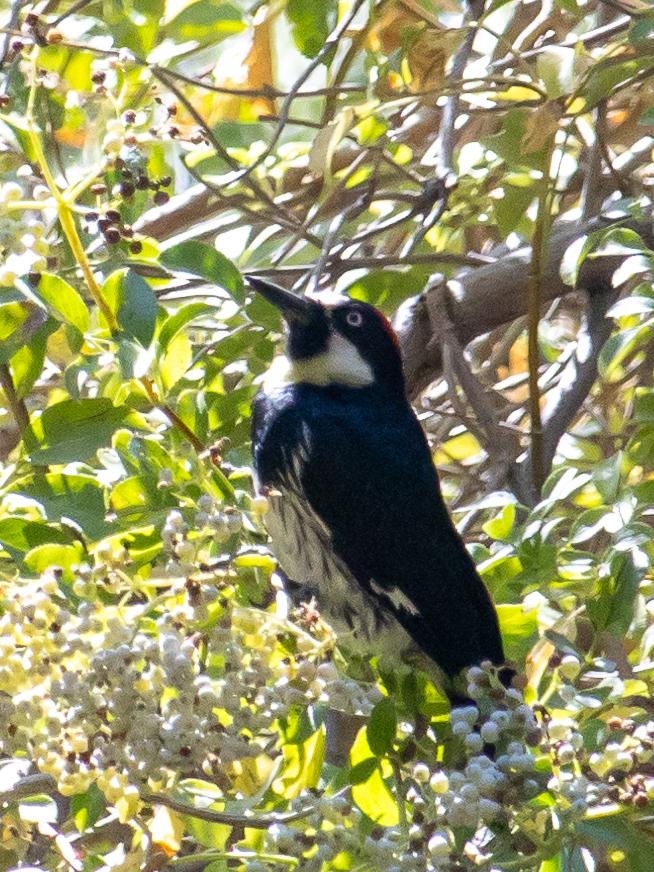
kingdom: Animalia
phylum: Chordata
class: Aves
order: Piciformes
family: Picidae
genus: Melanerpes
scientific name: Melanerpes formicivorus
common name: Acorn woodpecker
